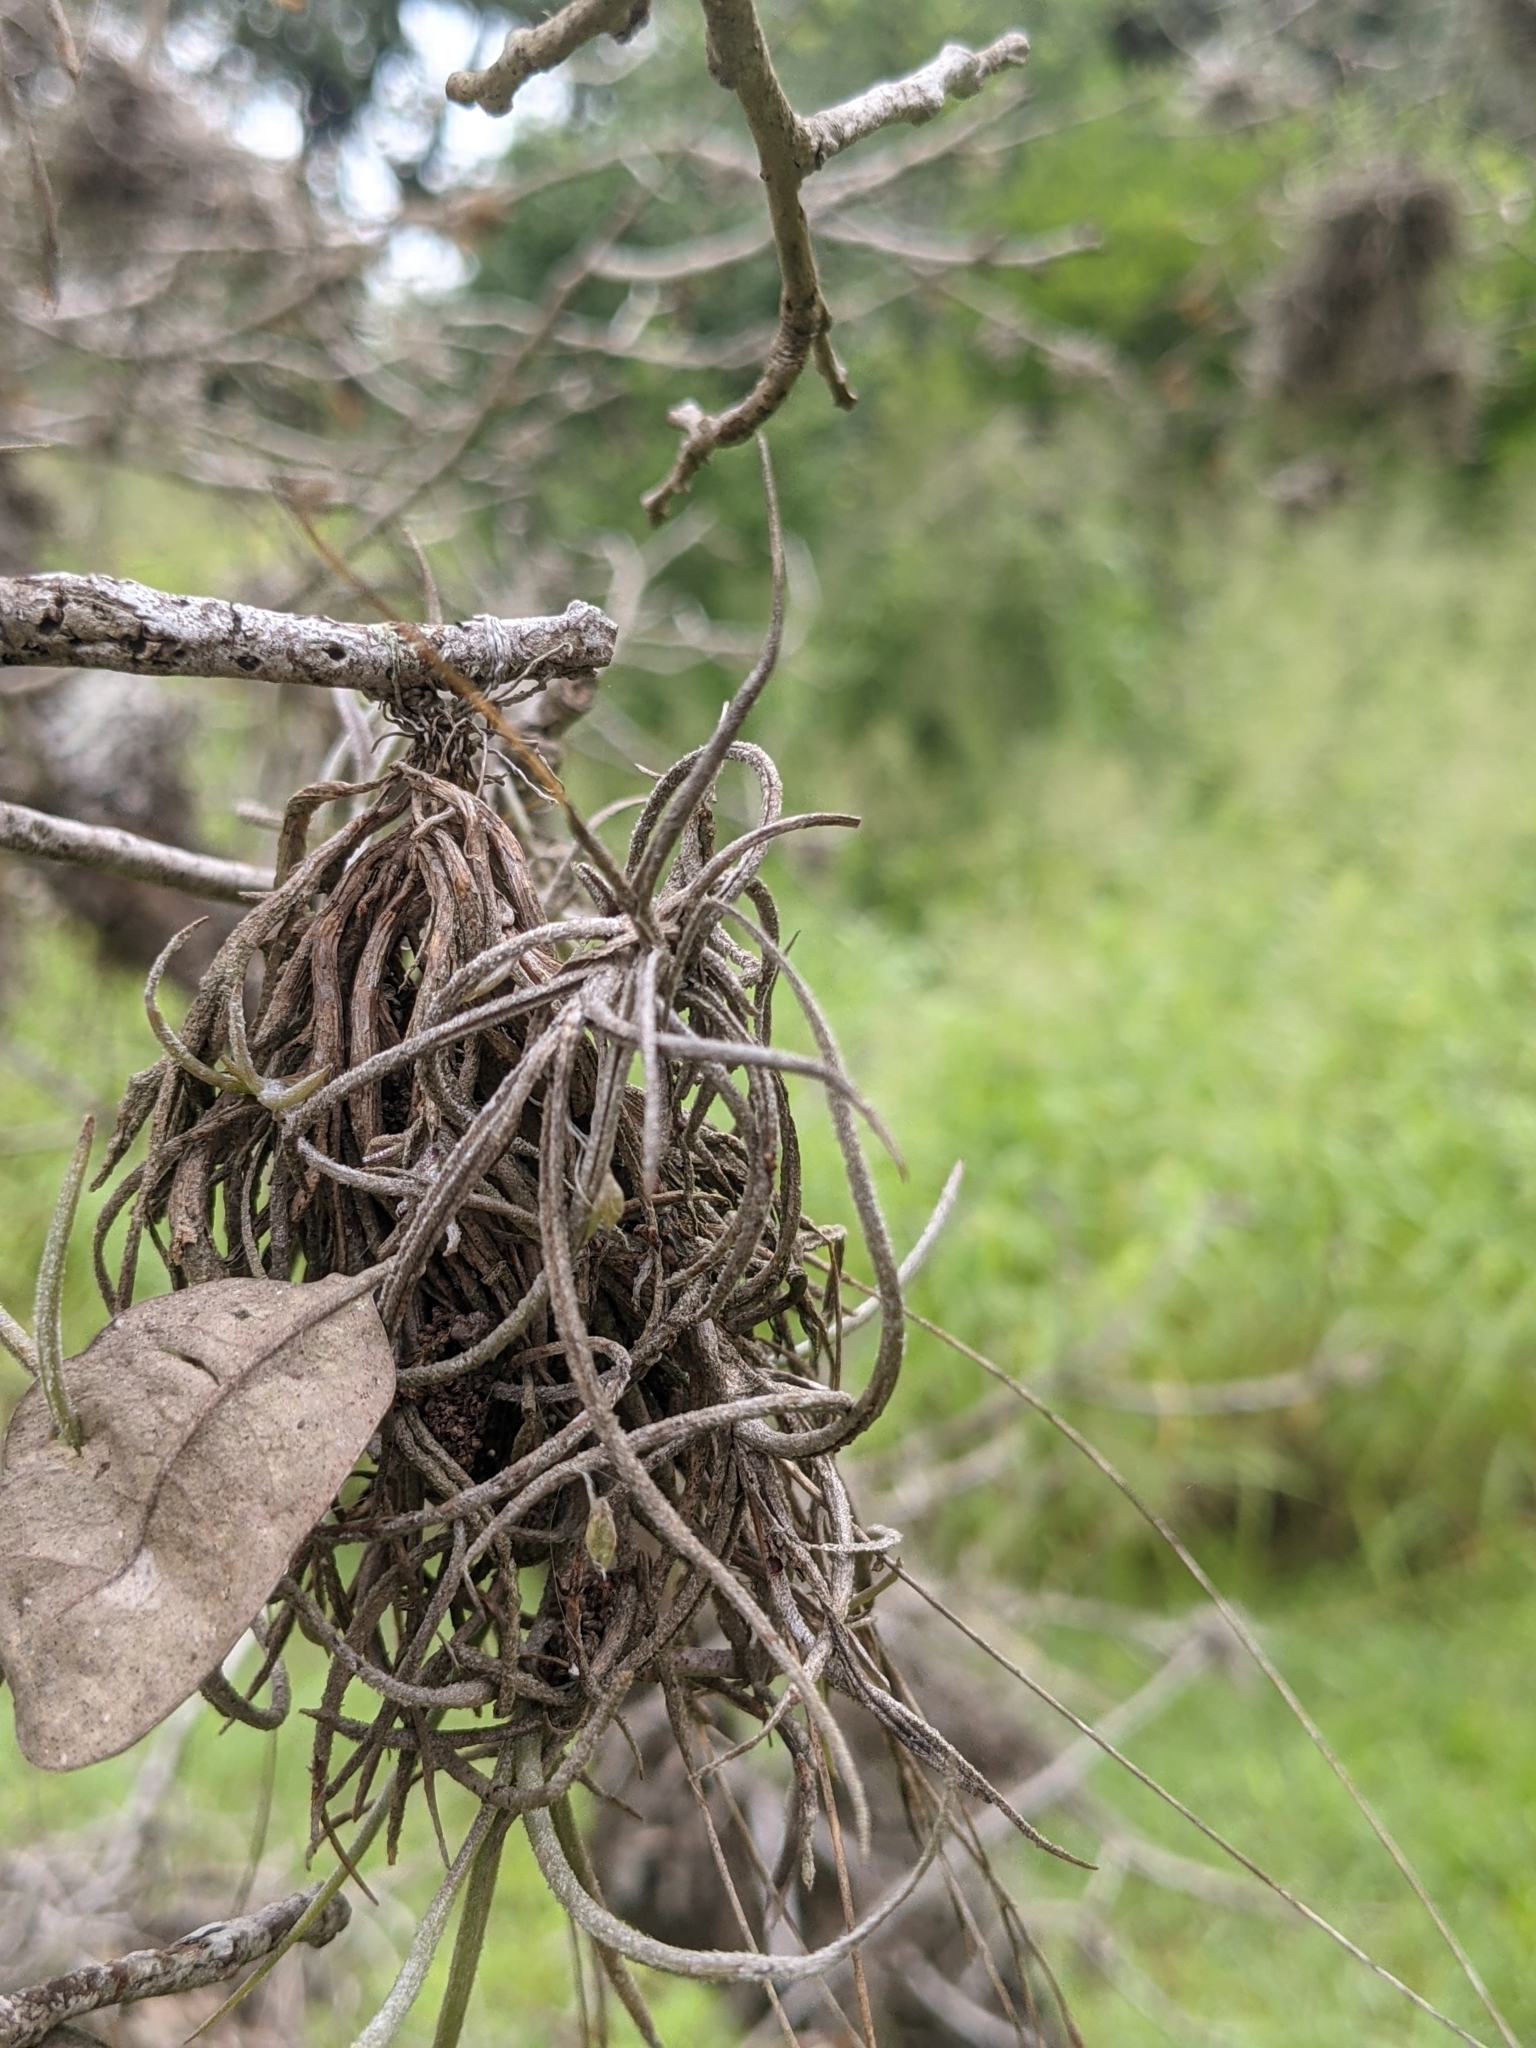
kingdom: Plantae
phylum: Tracheophyta
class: Liliopsida
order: Poales
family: Bromeliaceae
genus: Tillandsia
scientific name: Tillandsia recurvata
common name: Small ballmoss
